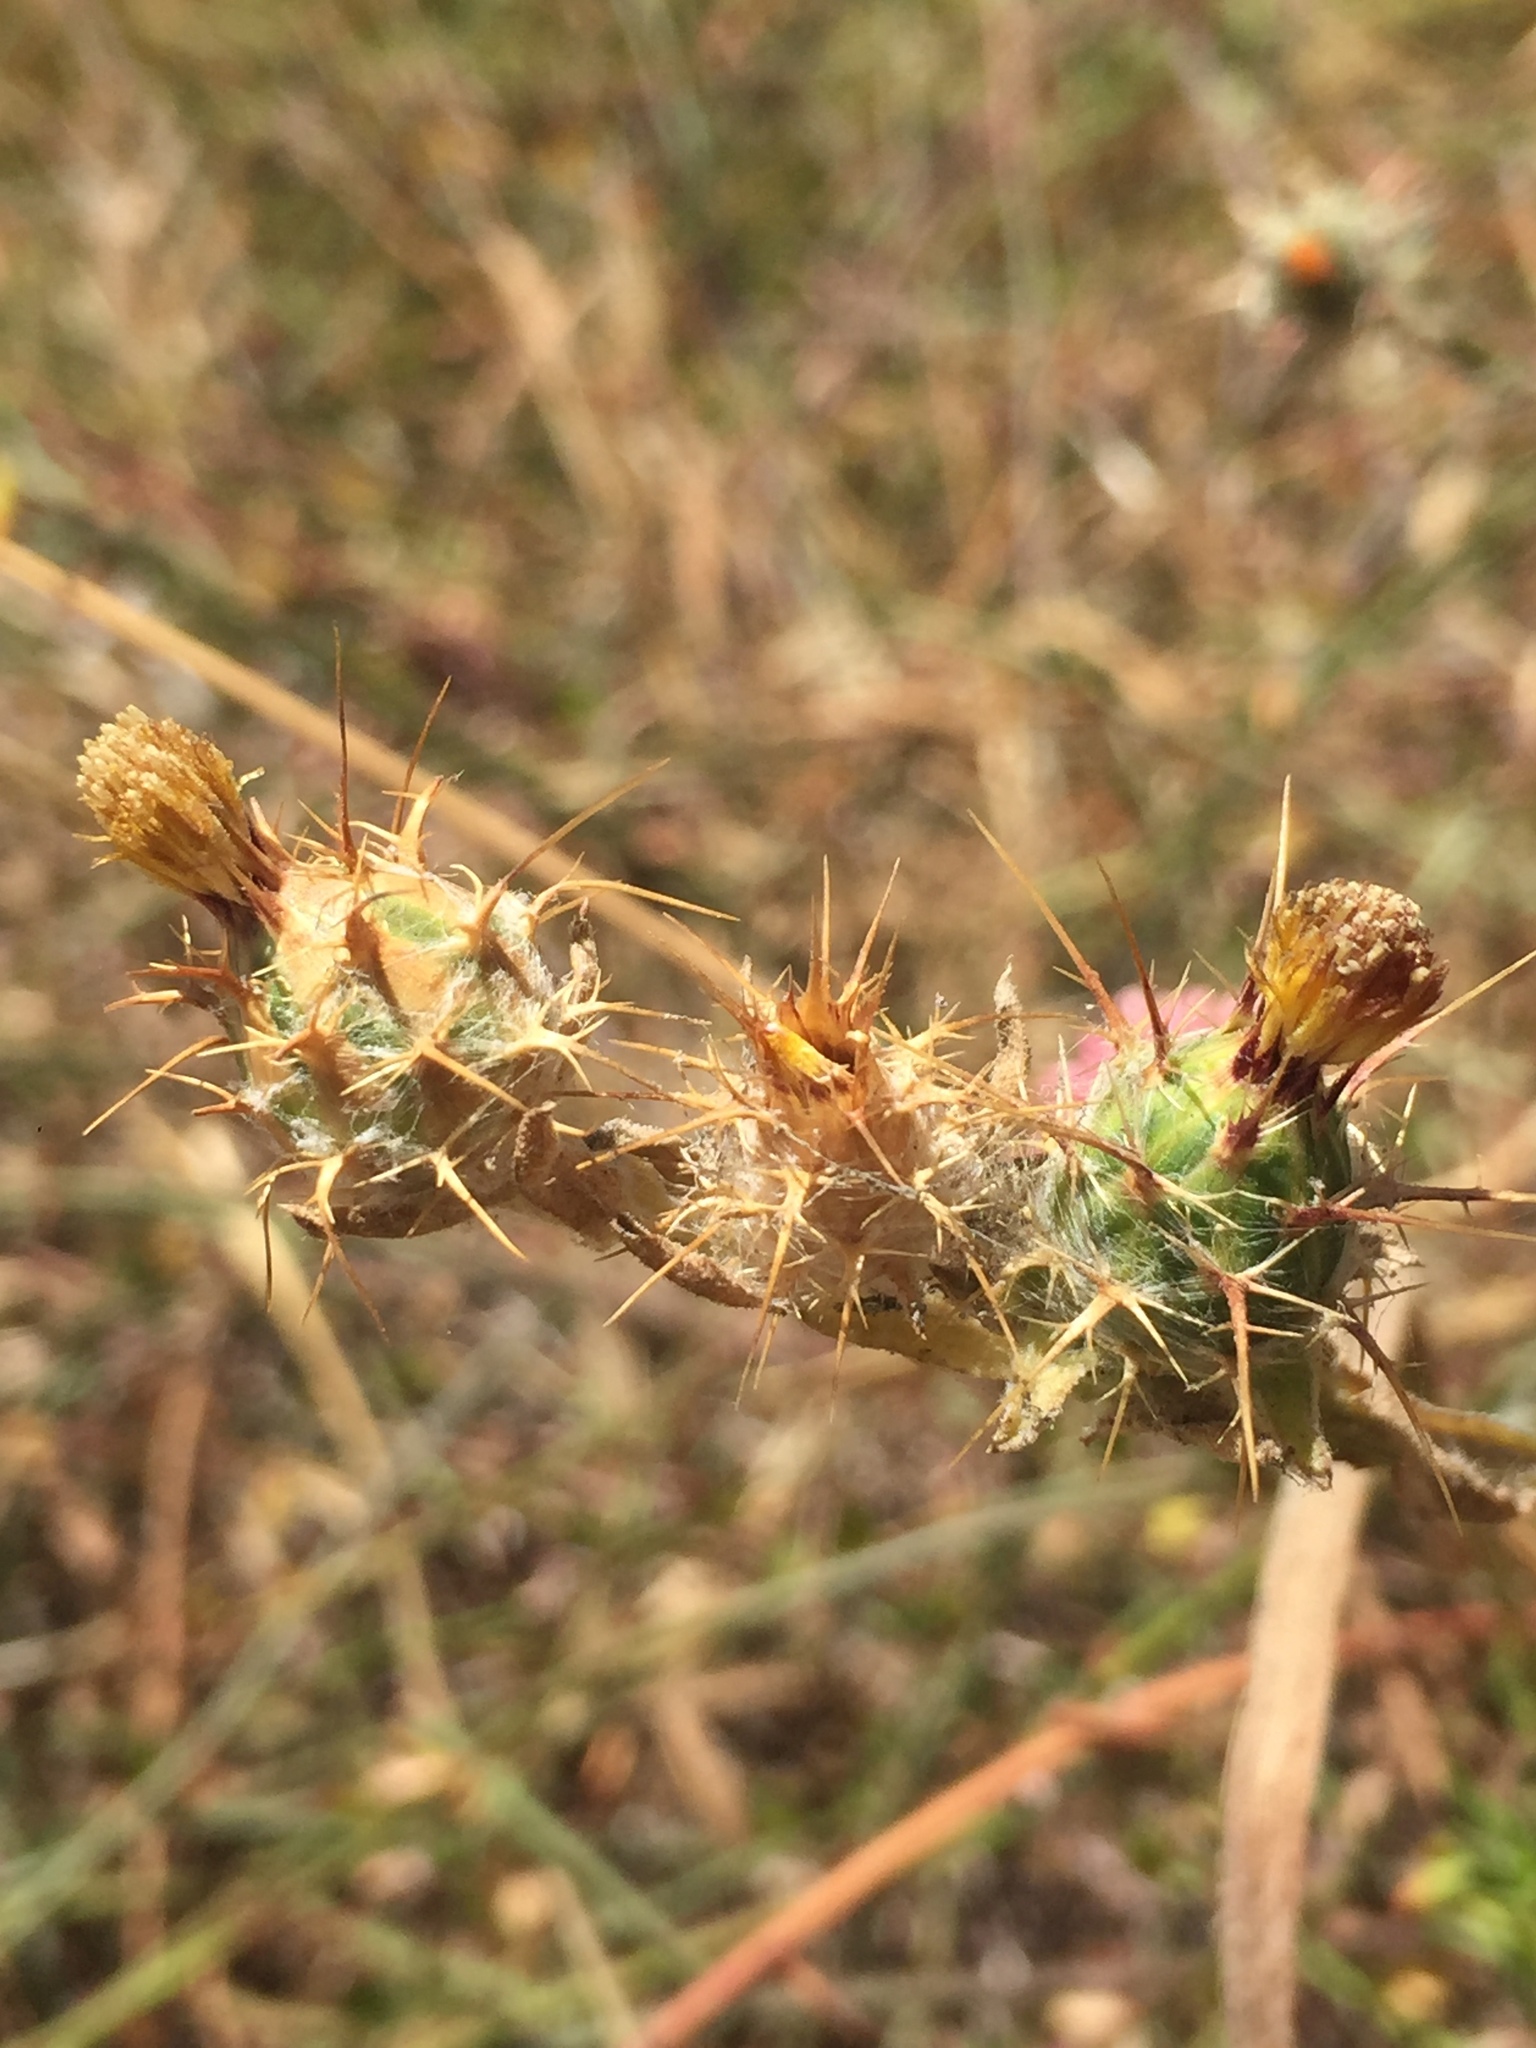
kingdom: Plantae
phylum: Tracheophyta
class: Magnoliopsida
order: Asterales
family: Asteraceae
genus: Centaurea
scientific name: Centaurea melitensis
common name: Maltese star-thistle
